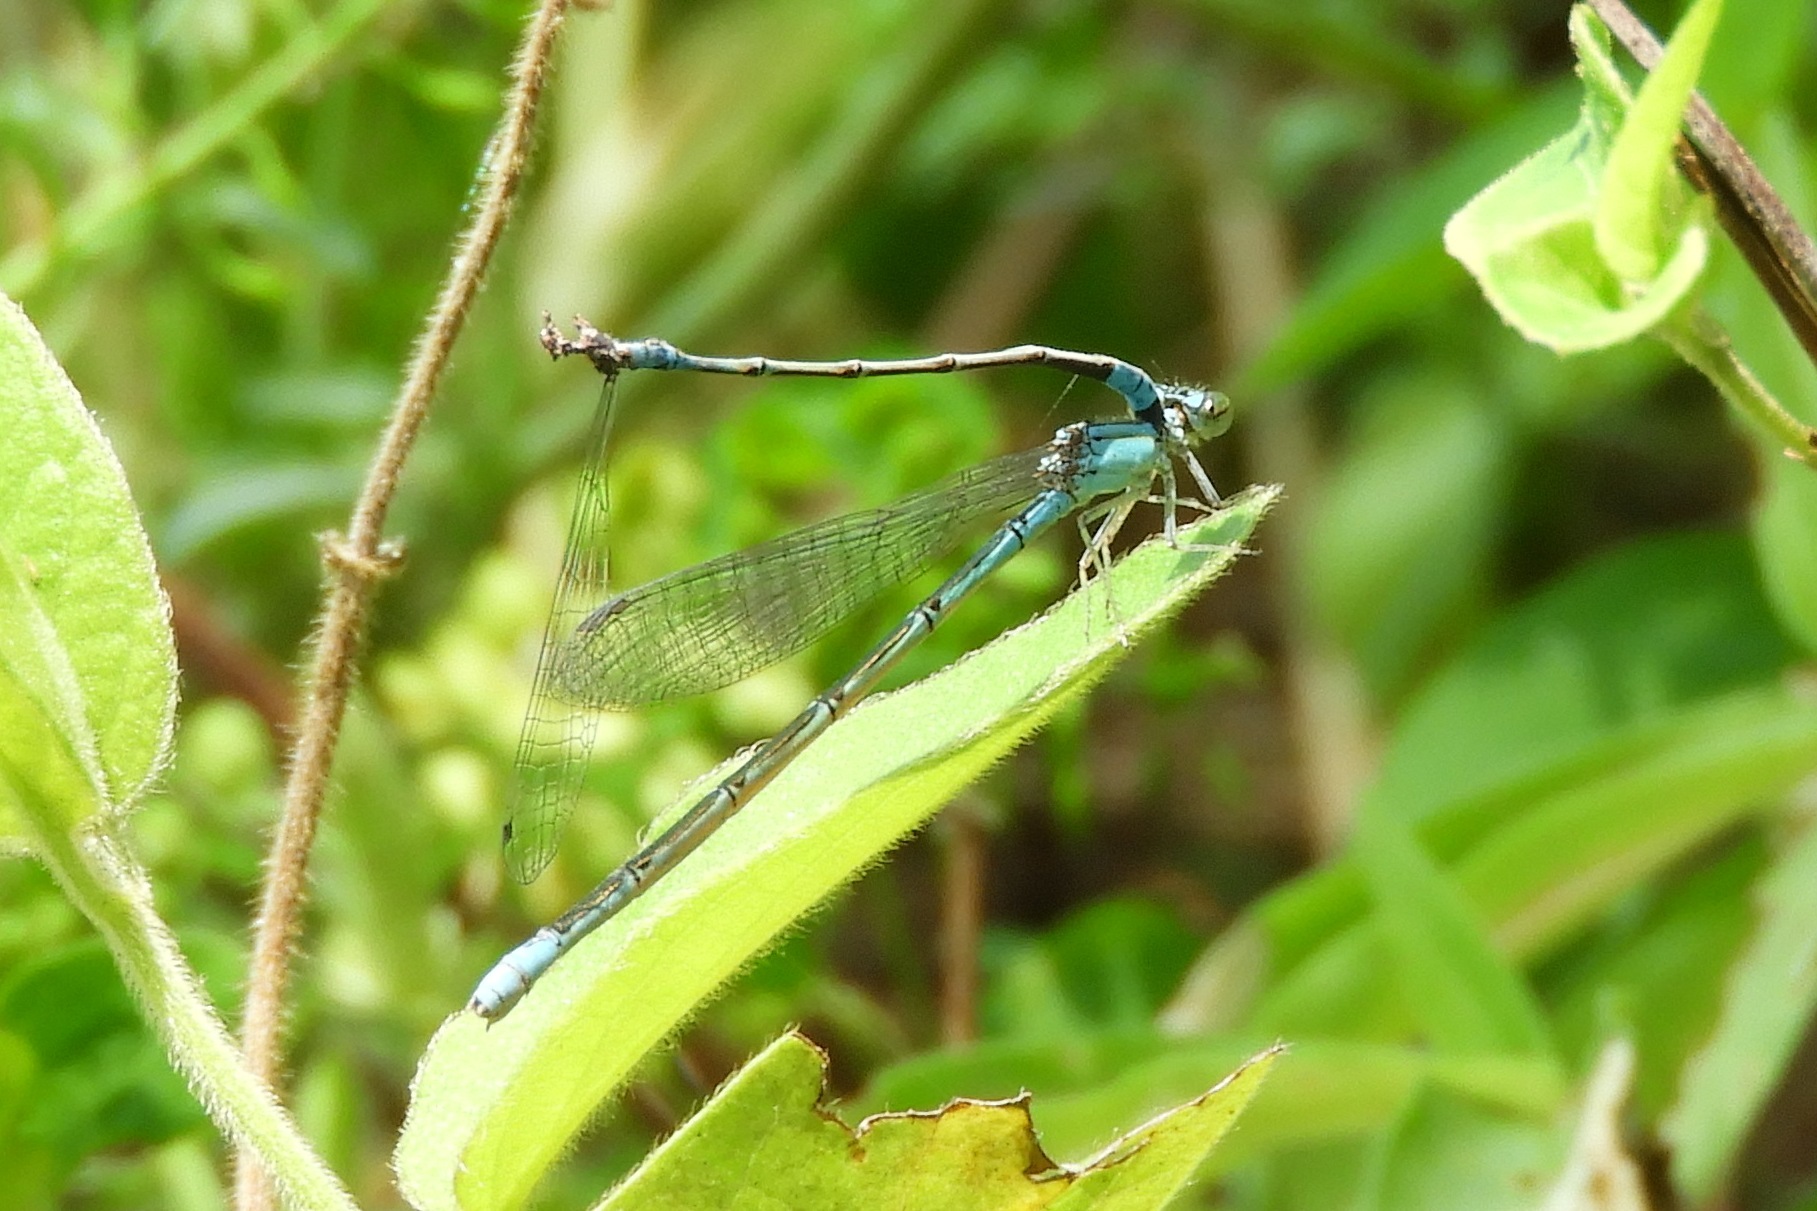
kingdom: Animalia
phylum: Arthropoda
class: Insecta
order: Odonata
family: Coenagrionidae
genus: Enallagma
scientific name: Enallagma traviatum
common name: Slender bluet
